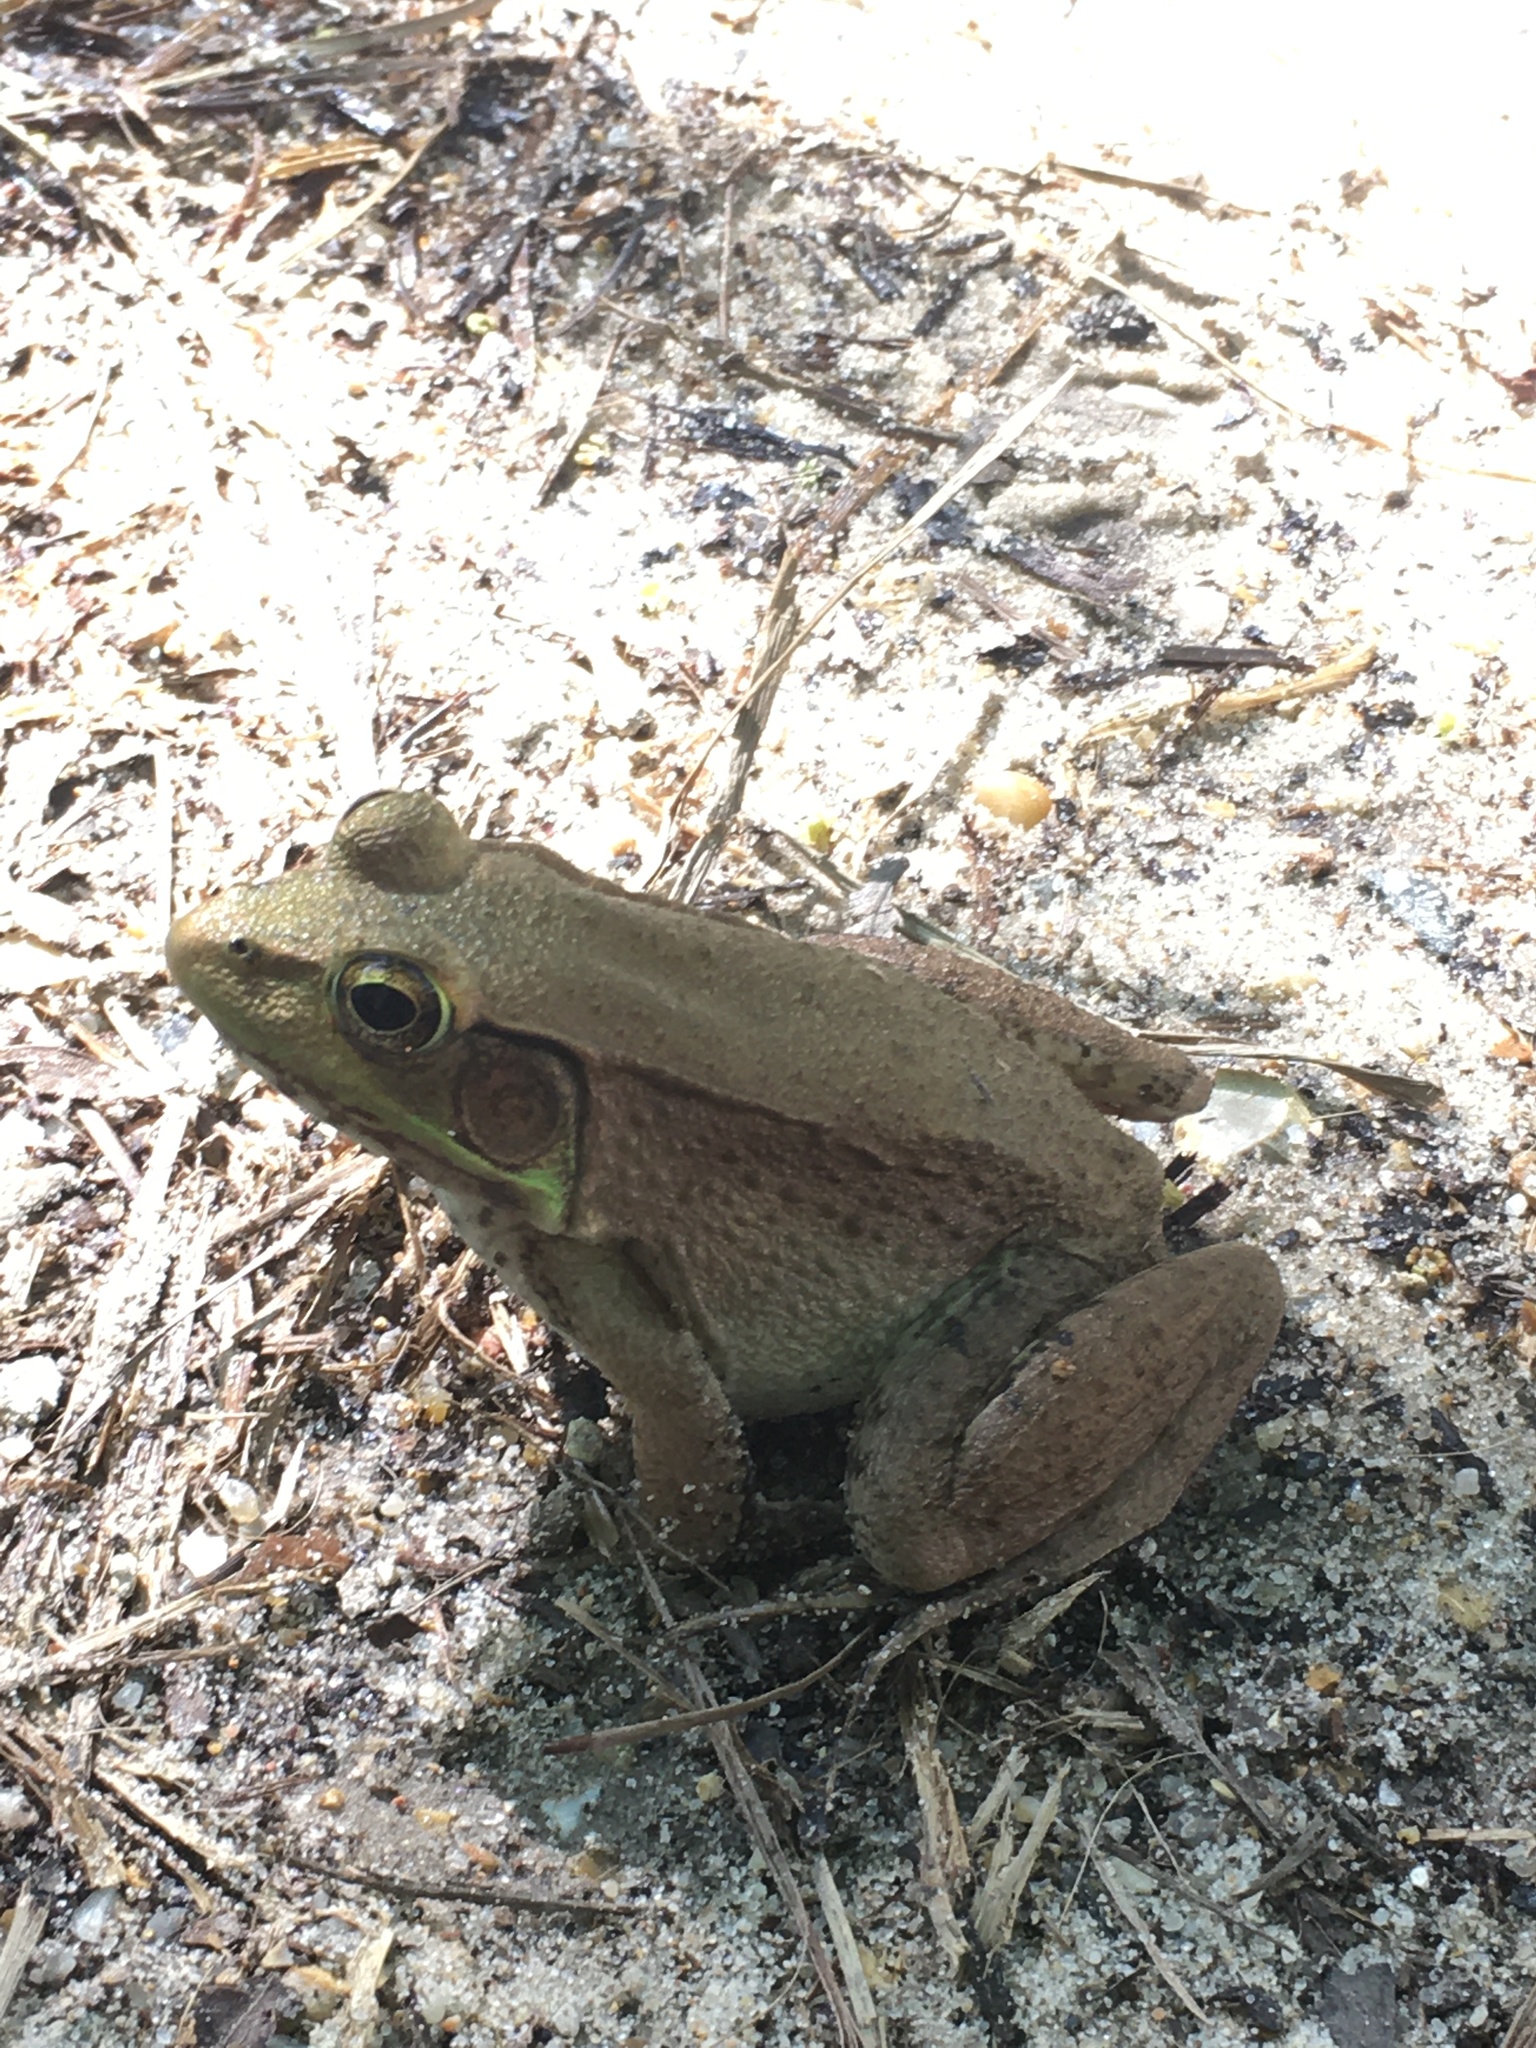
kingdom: Animalia
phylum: Chordata
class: Amphibia
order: Anura
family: Ranidae
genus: Lithobates
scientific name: Lithobates clamitans
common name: Green frog
